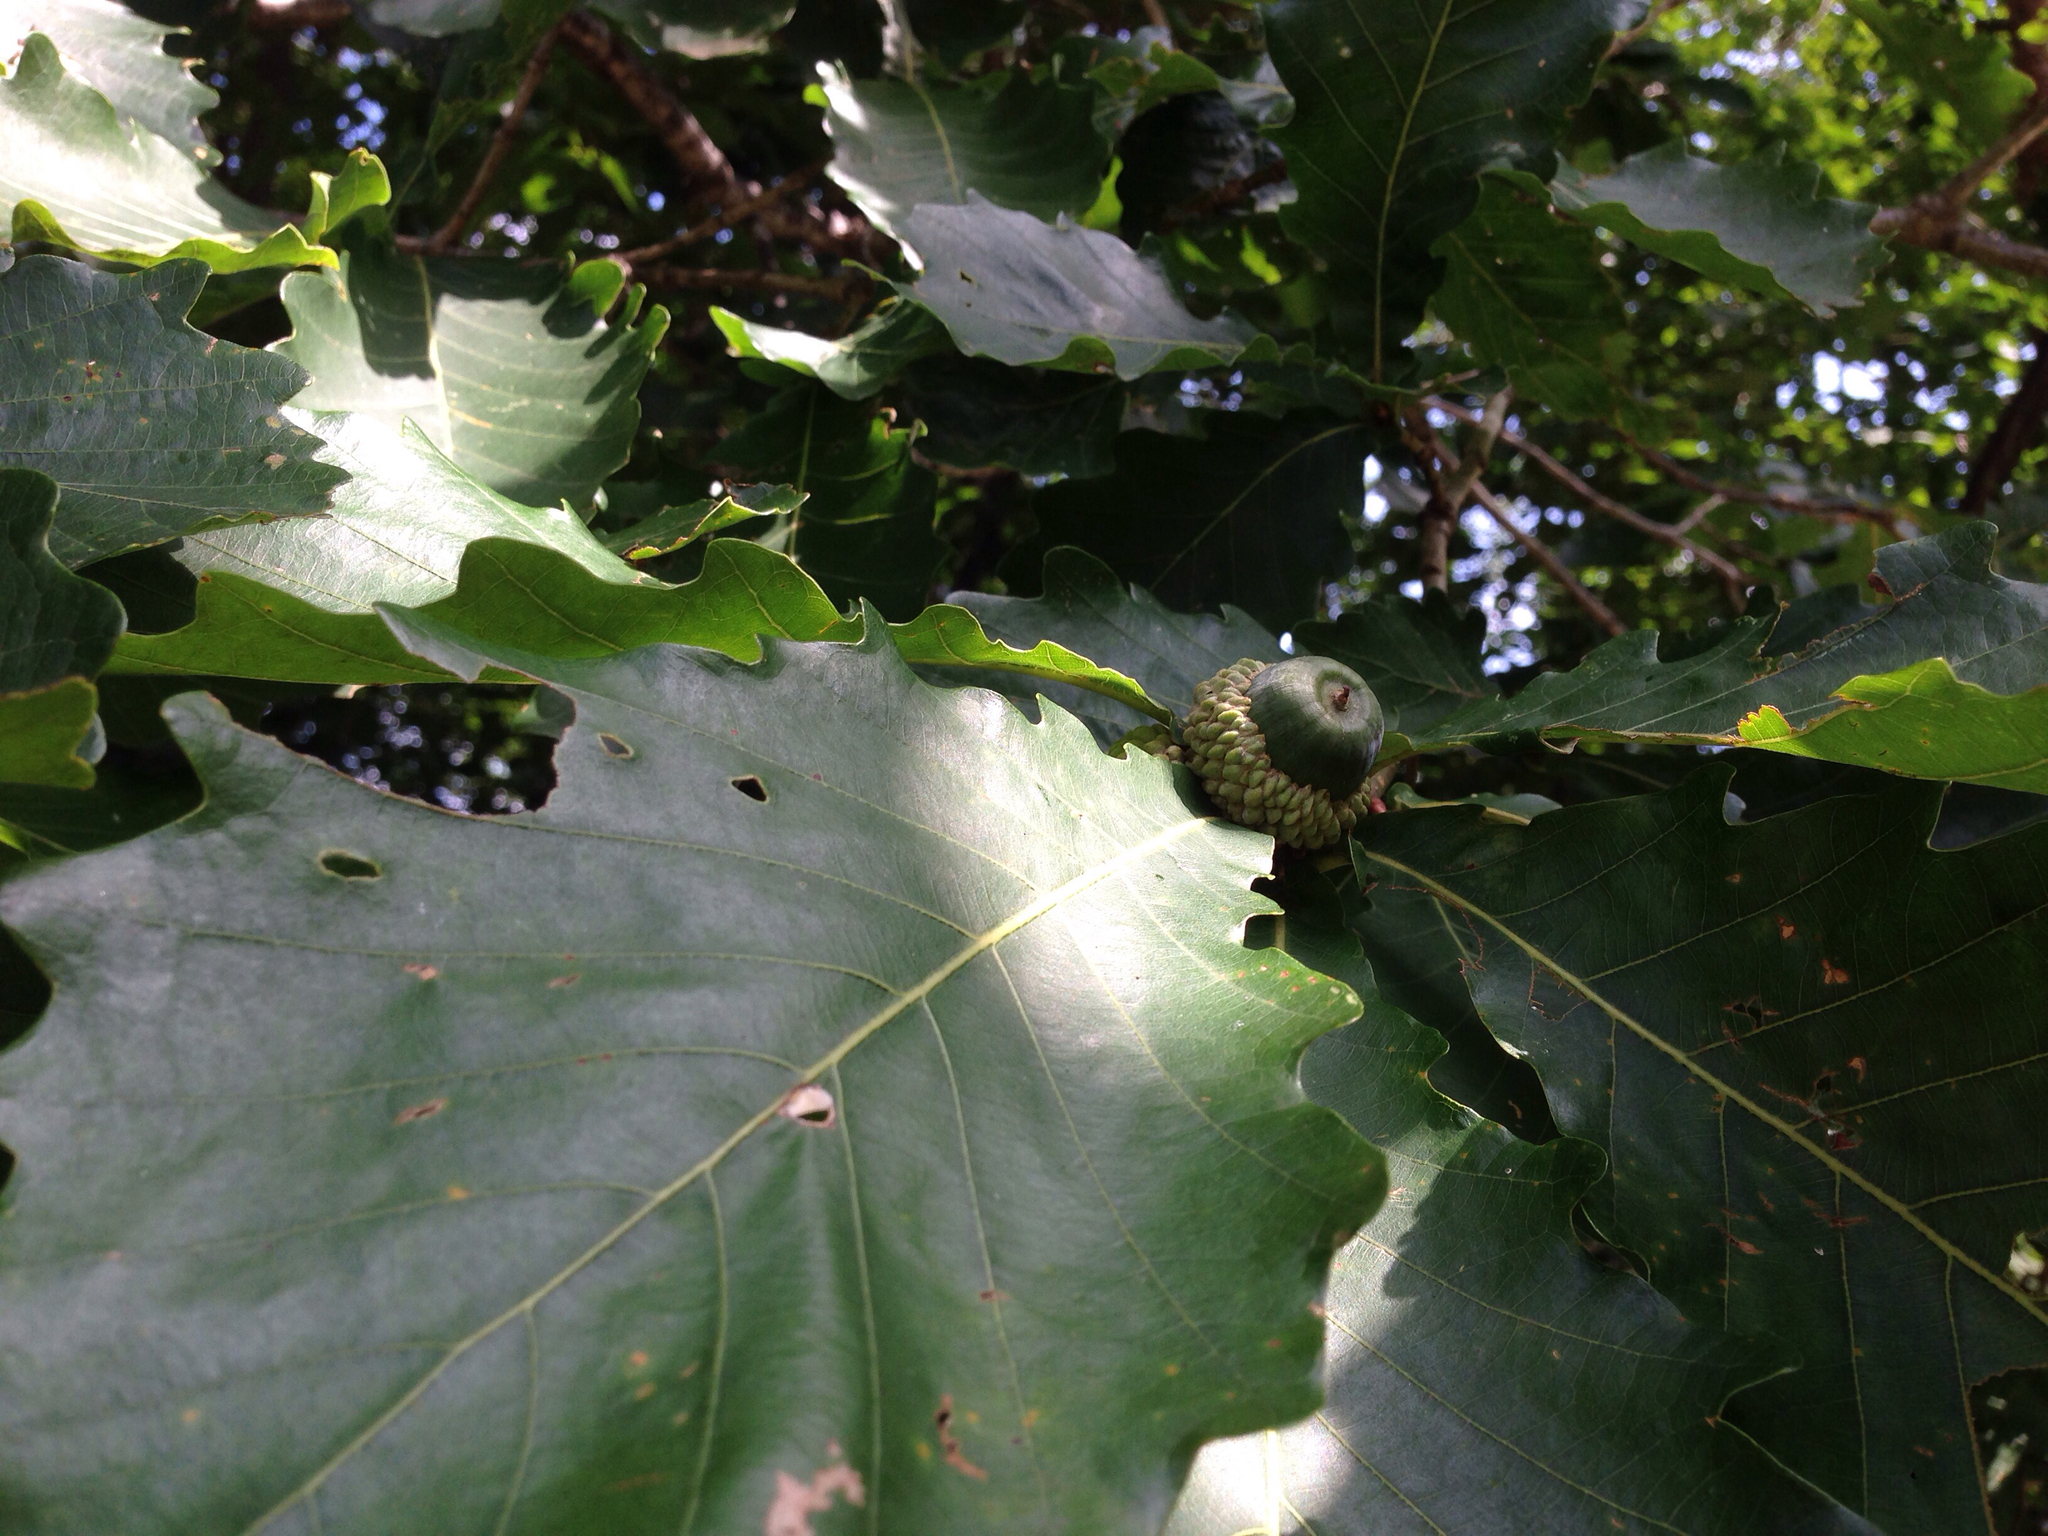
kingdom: Plantae
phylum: Tracheophyta
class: Magnoliopsida
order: Fagales
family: Fagaceae
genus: Quercus
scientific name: Quercus mongolica
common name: Mongolian oak
